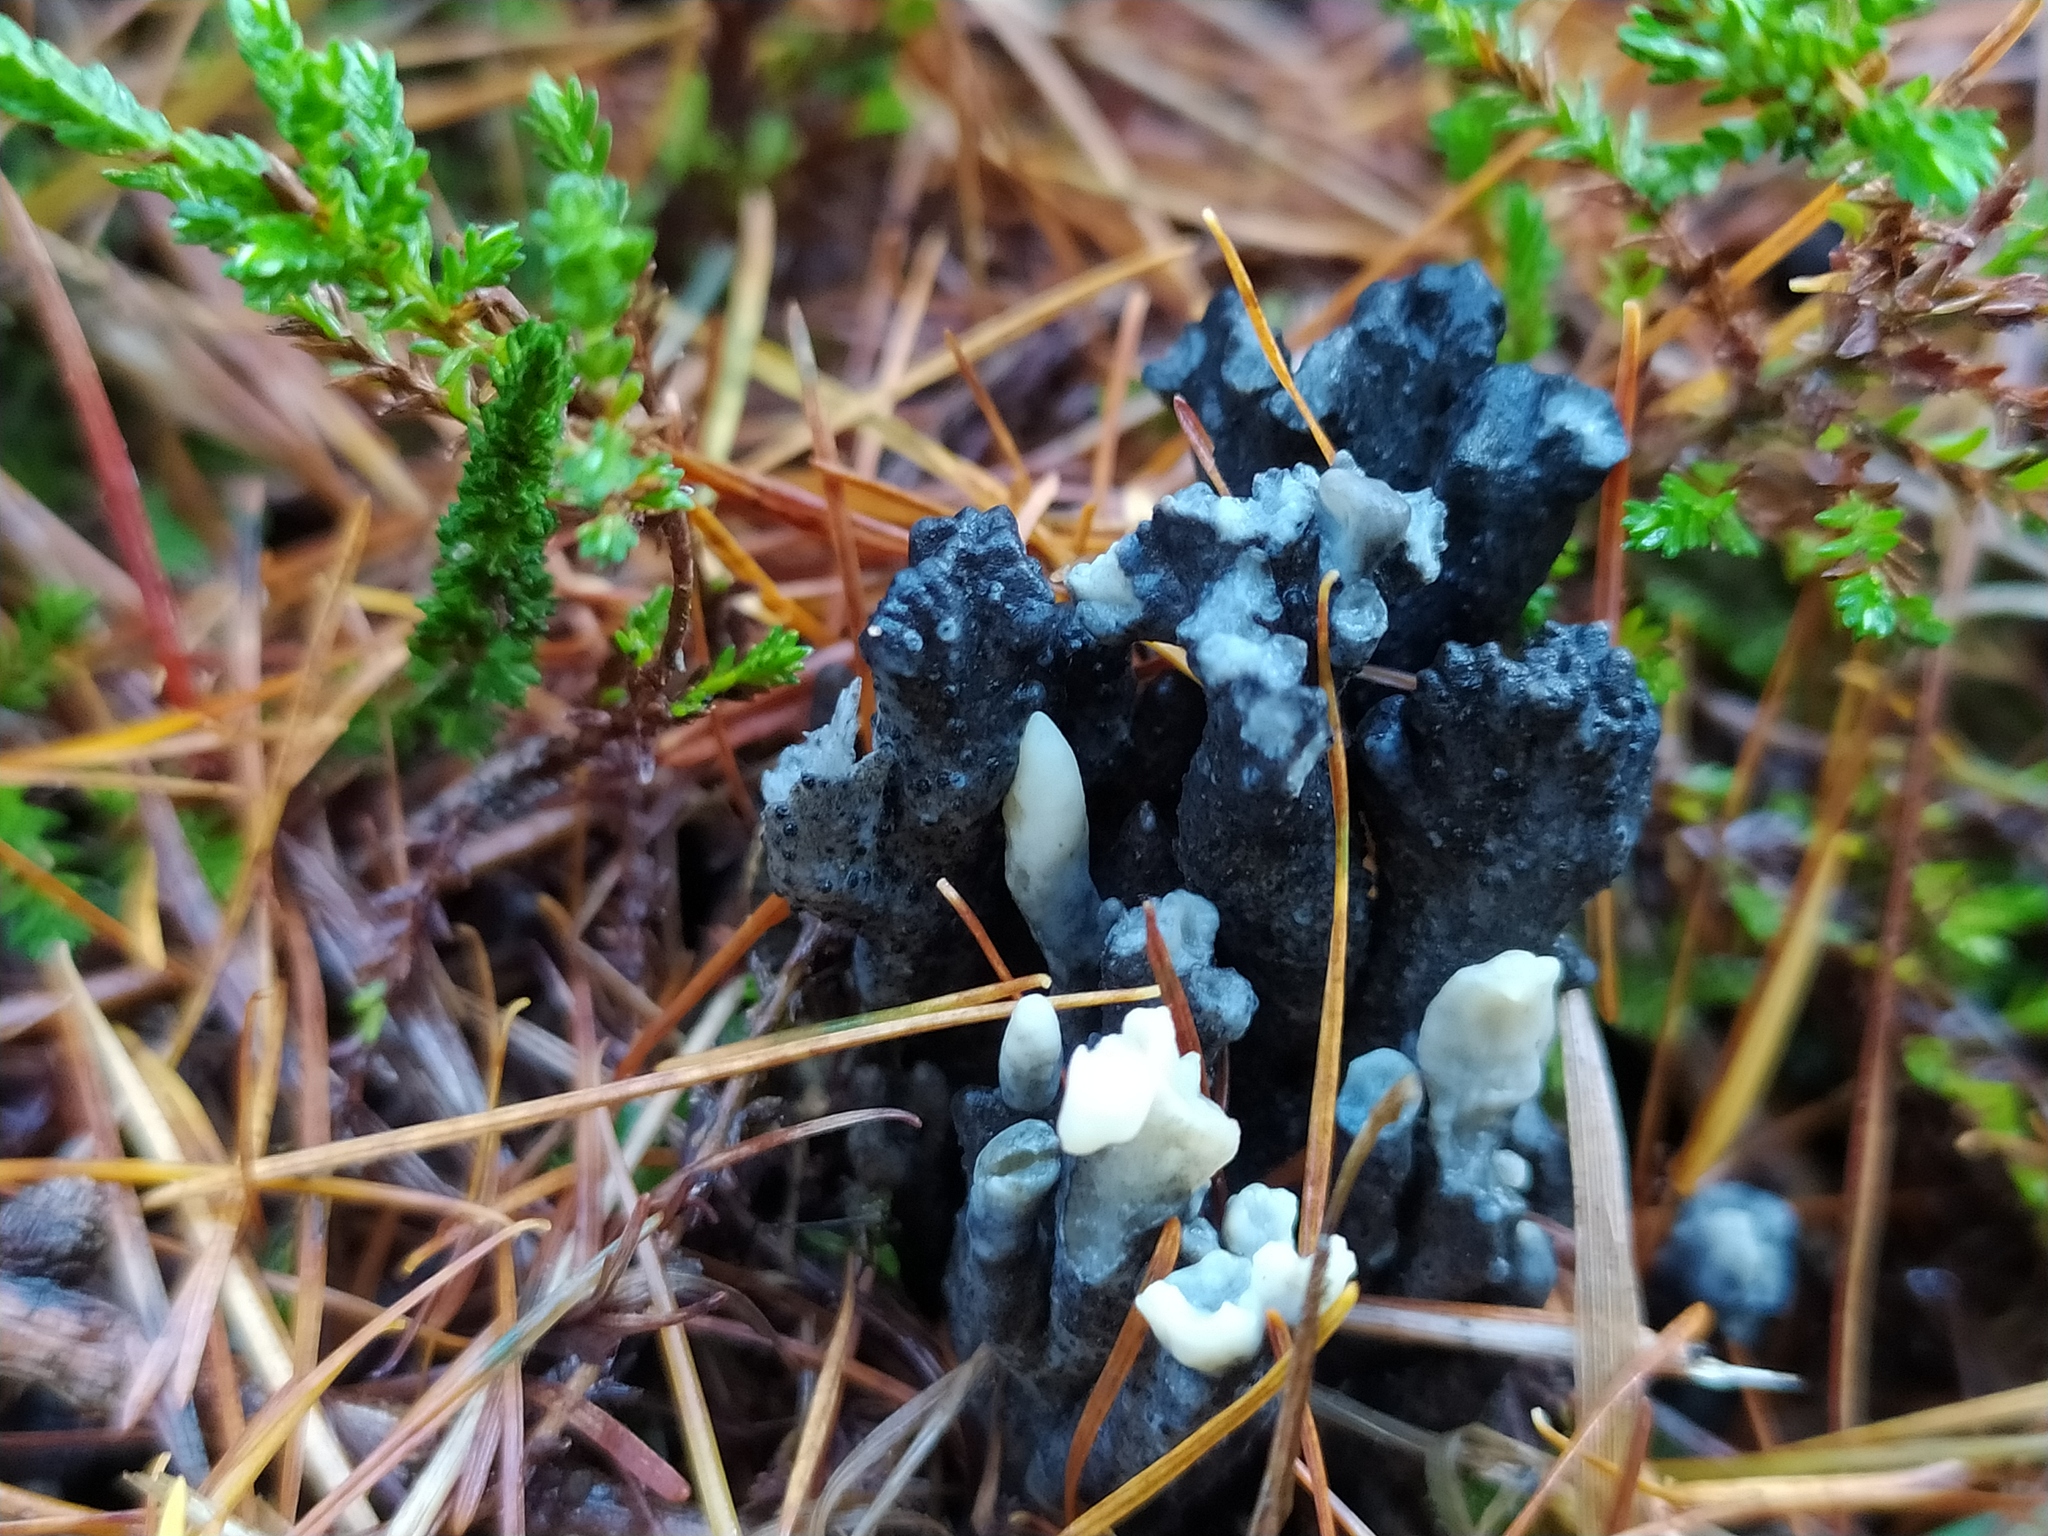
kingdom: Fungi
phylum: Ascomycota
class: Sordariomycetes
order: Sordariales
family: Helminthosphaeriaceae
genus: Helminthosphaeria
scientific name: Helminthosphaeria clavariarum
